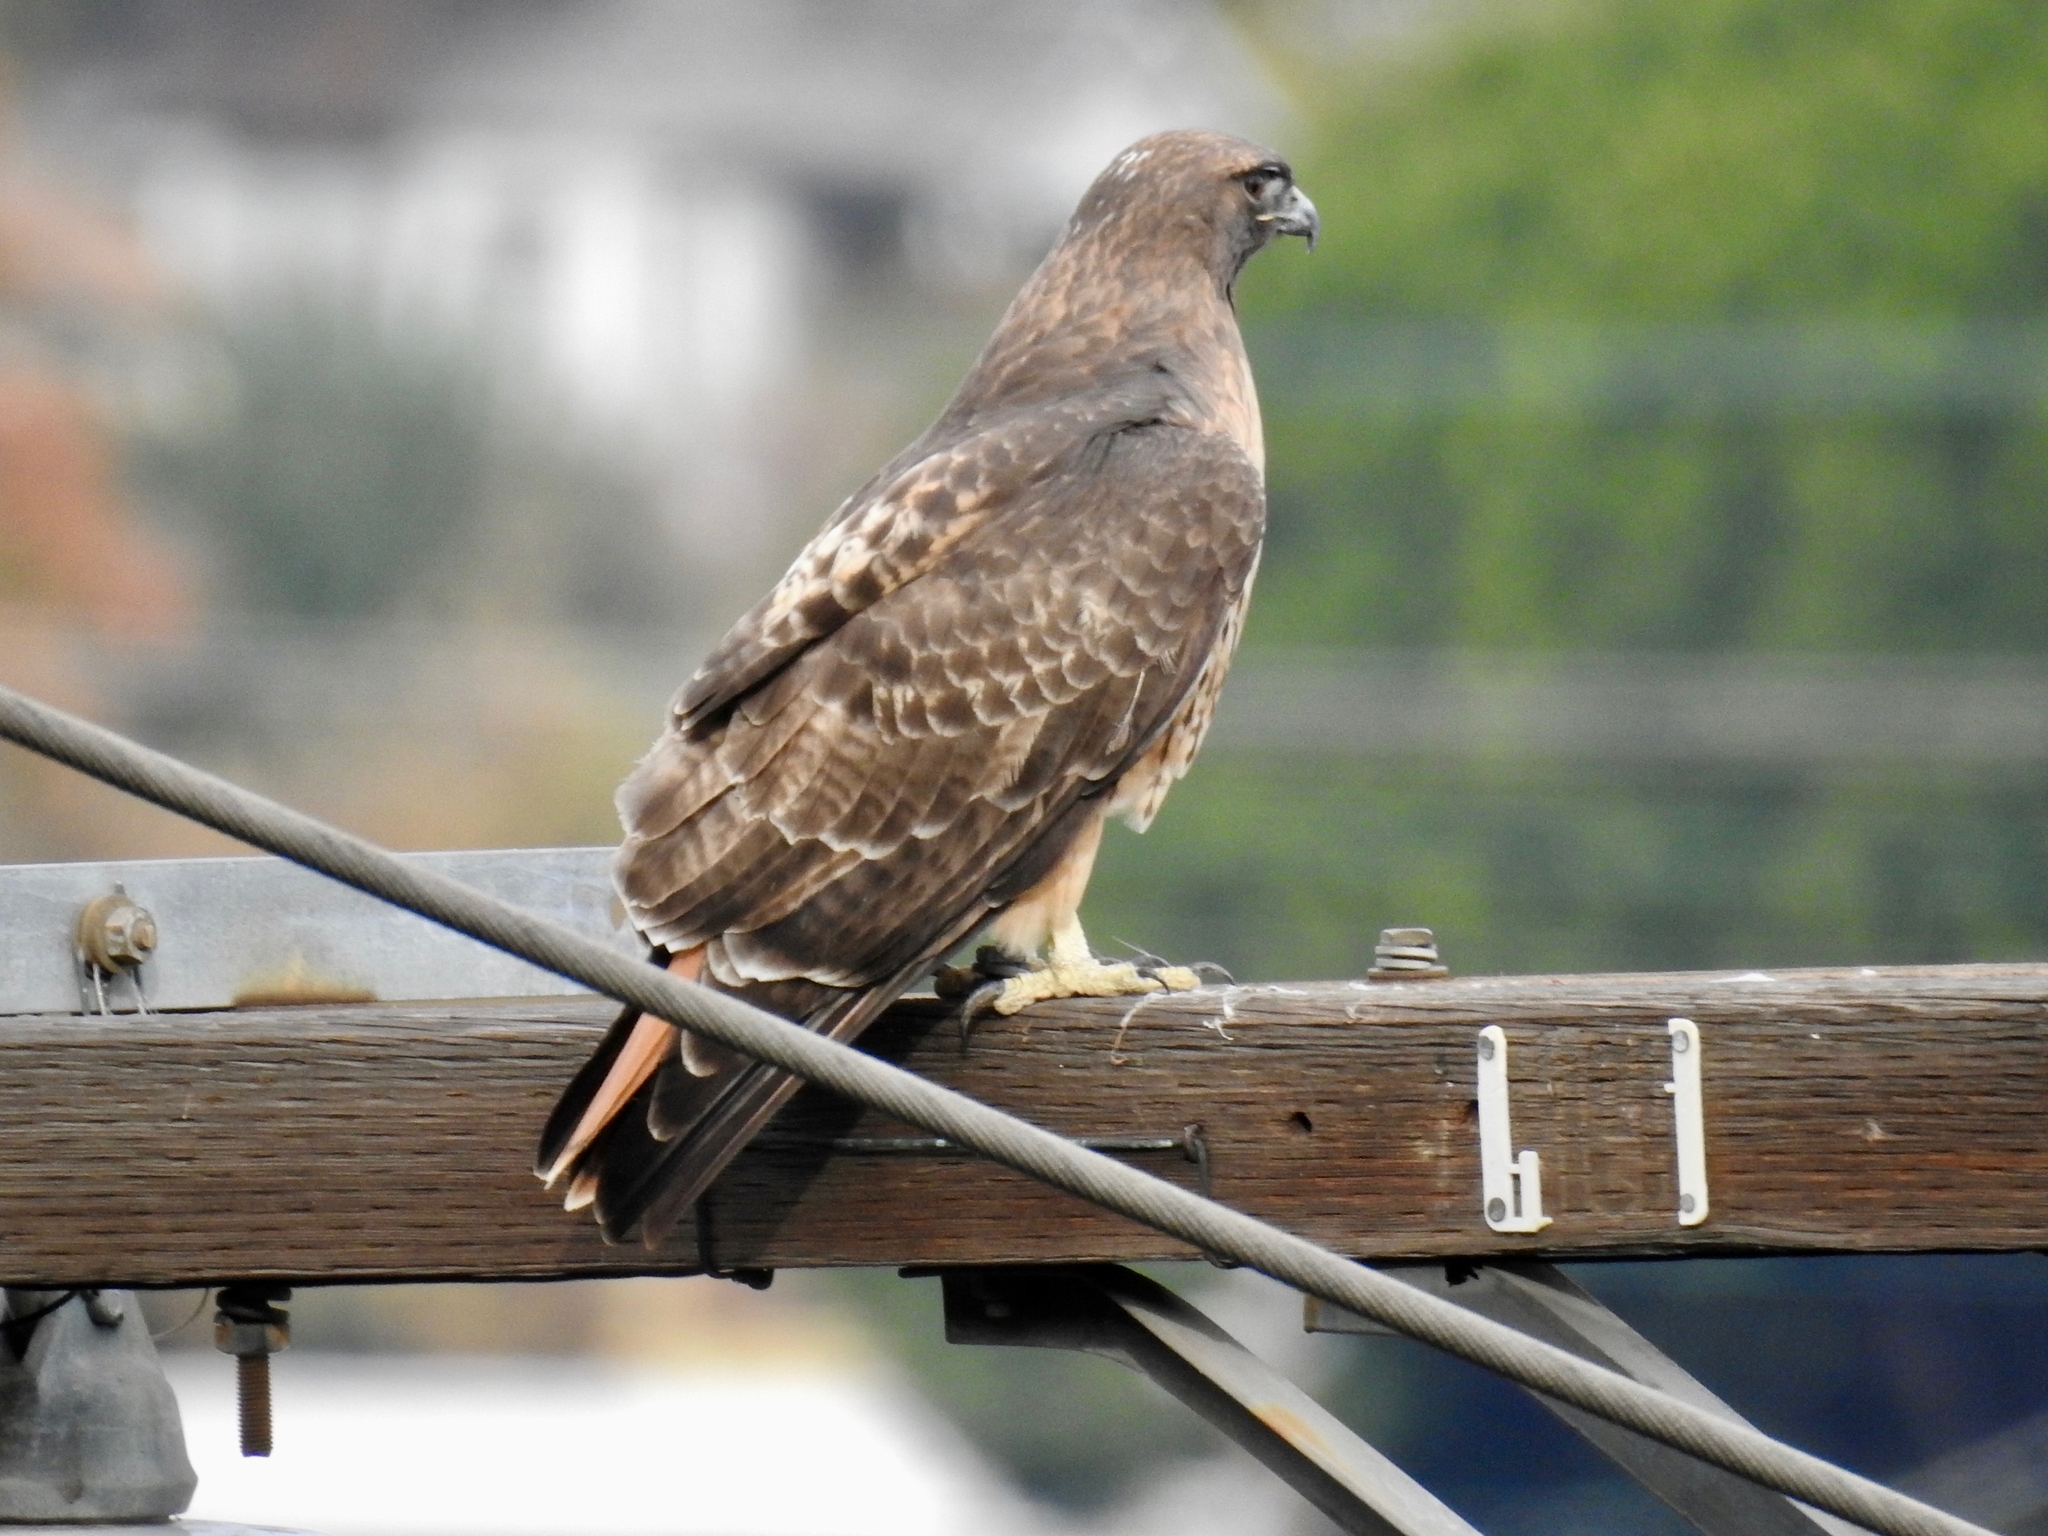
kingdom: Animalia
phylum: Chordata
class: Aves
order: Accipitriformes
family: Accipitridae
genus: Buteo
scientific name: Buteo jamaicensis
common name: Red-tailed hawk
